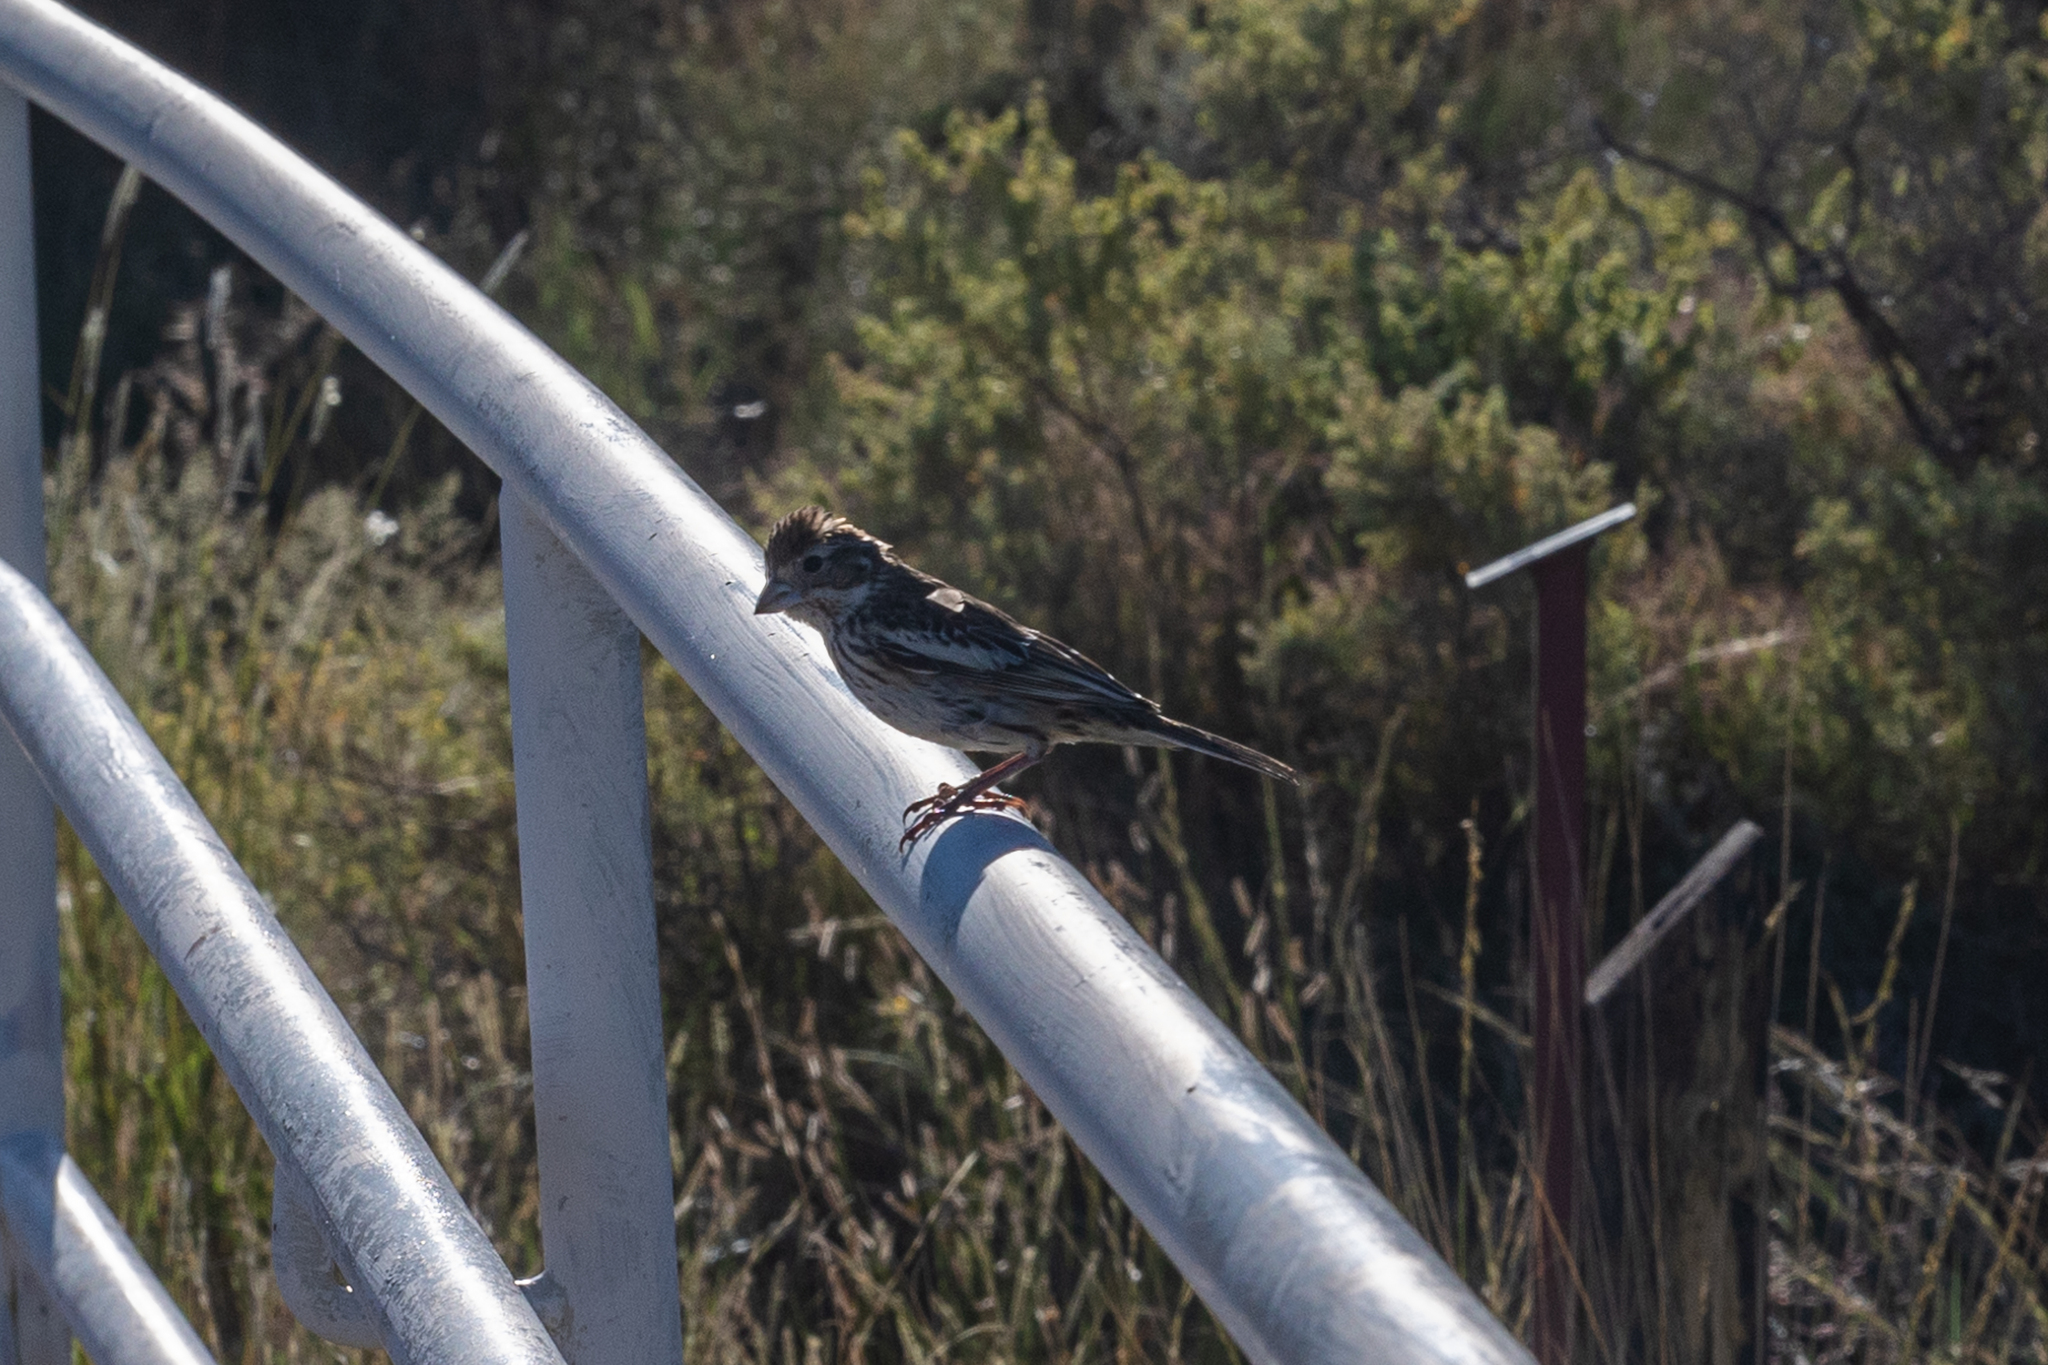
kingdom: Animalia
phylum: Chordata
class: Aves
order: Passeriformes
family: Passerellidae
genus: Calamospiza
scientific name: Calamospiza melanocorys
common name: Lark bunting
